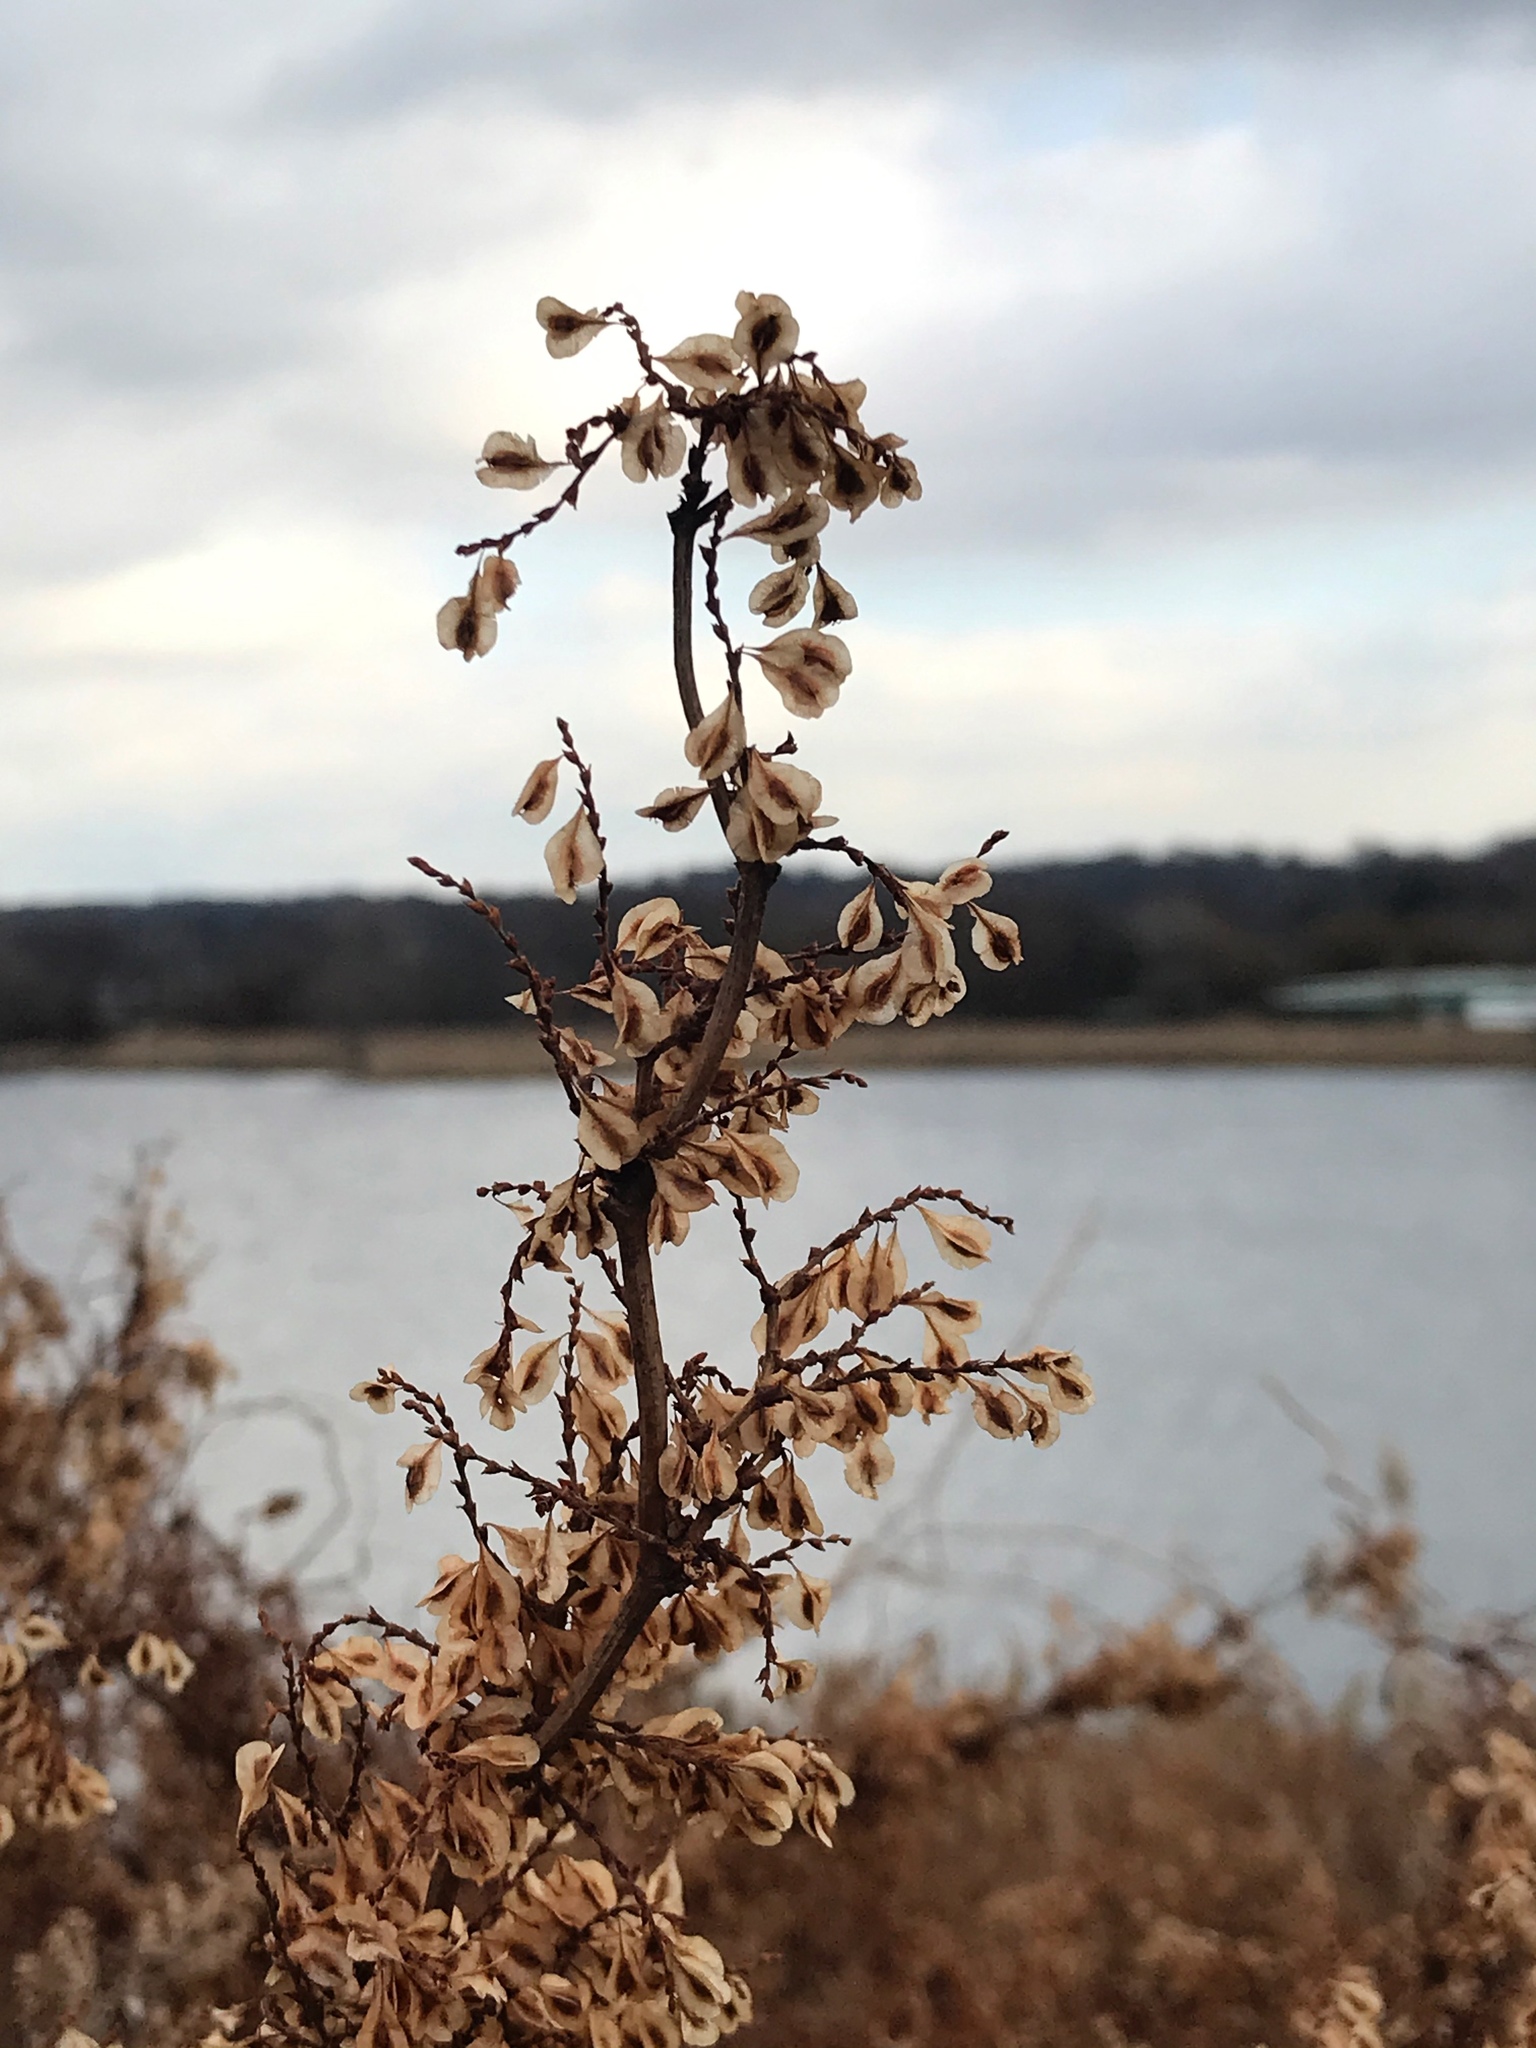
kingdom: Plantae
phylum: Tracheophyta
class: Magnoliopsida
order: Caryophyllales
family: Polygonaceae
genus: Reynoutria
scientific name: Reynoutria japonica
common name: Japanese knotweed
